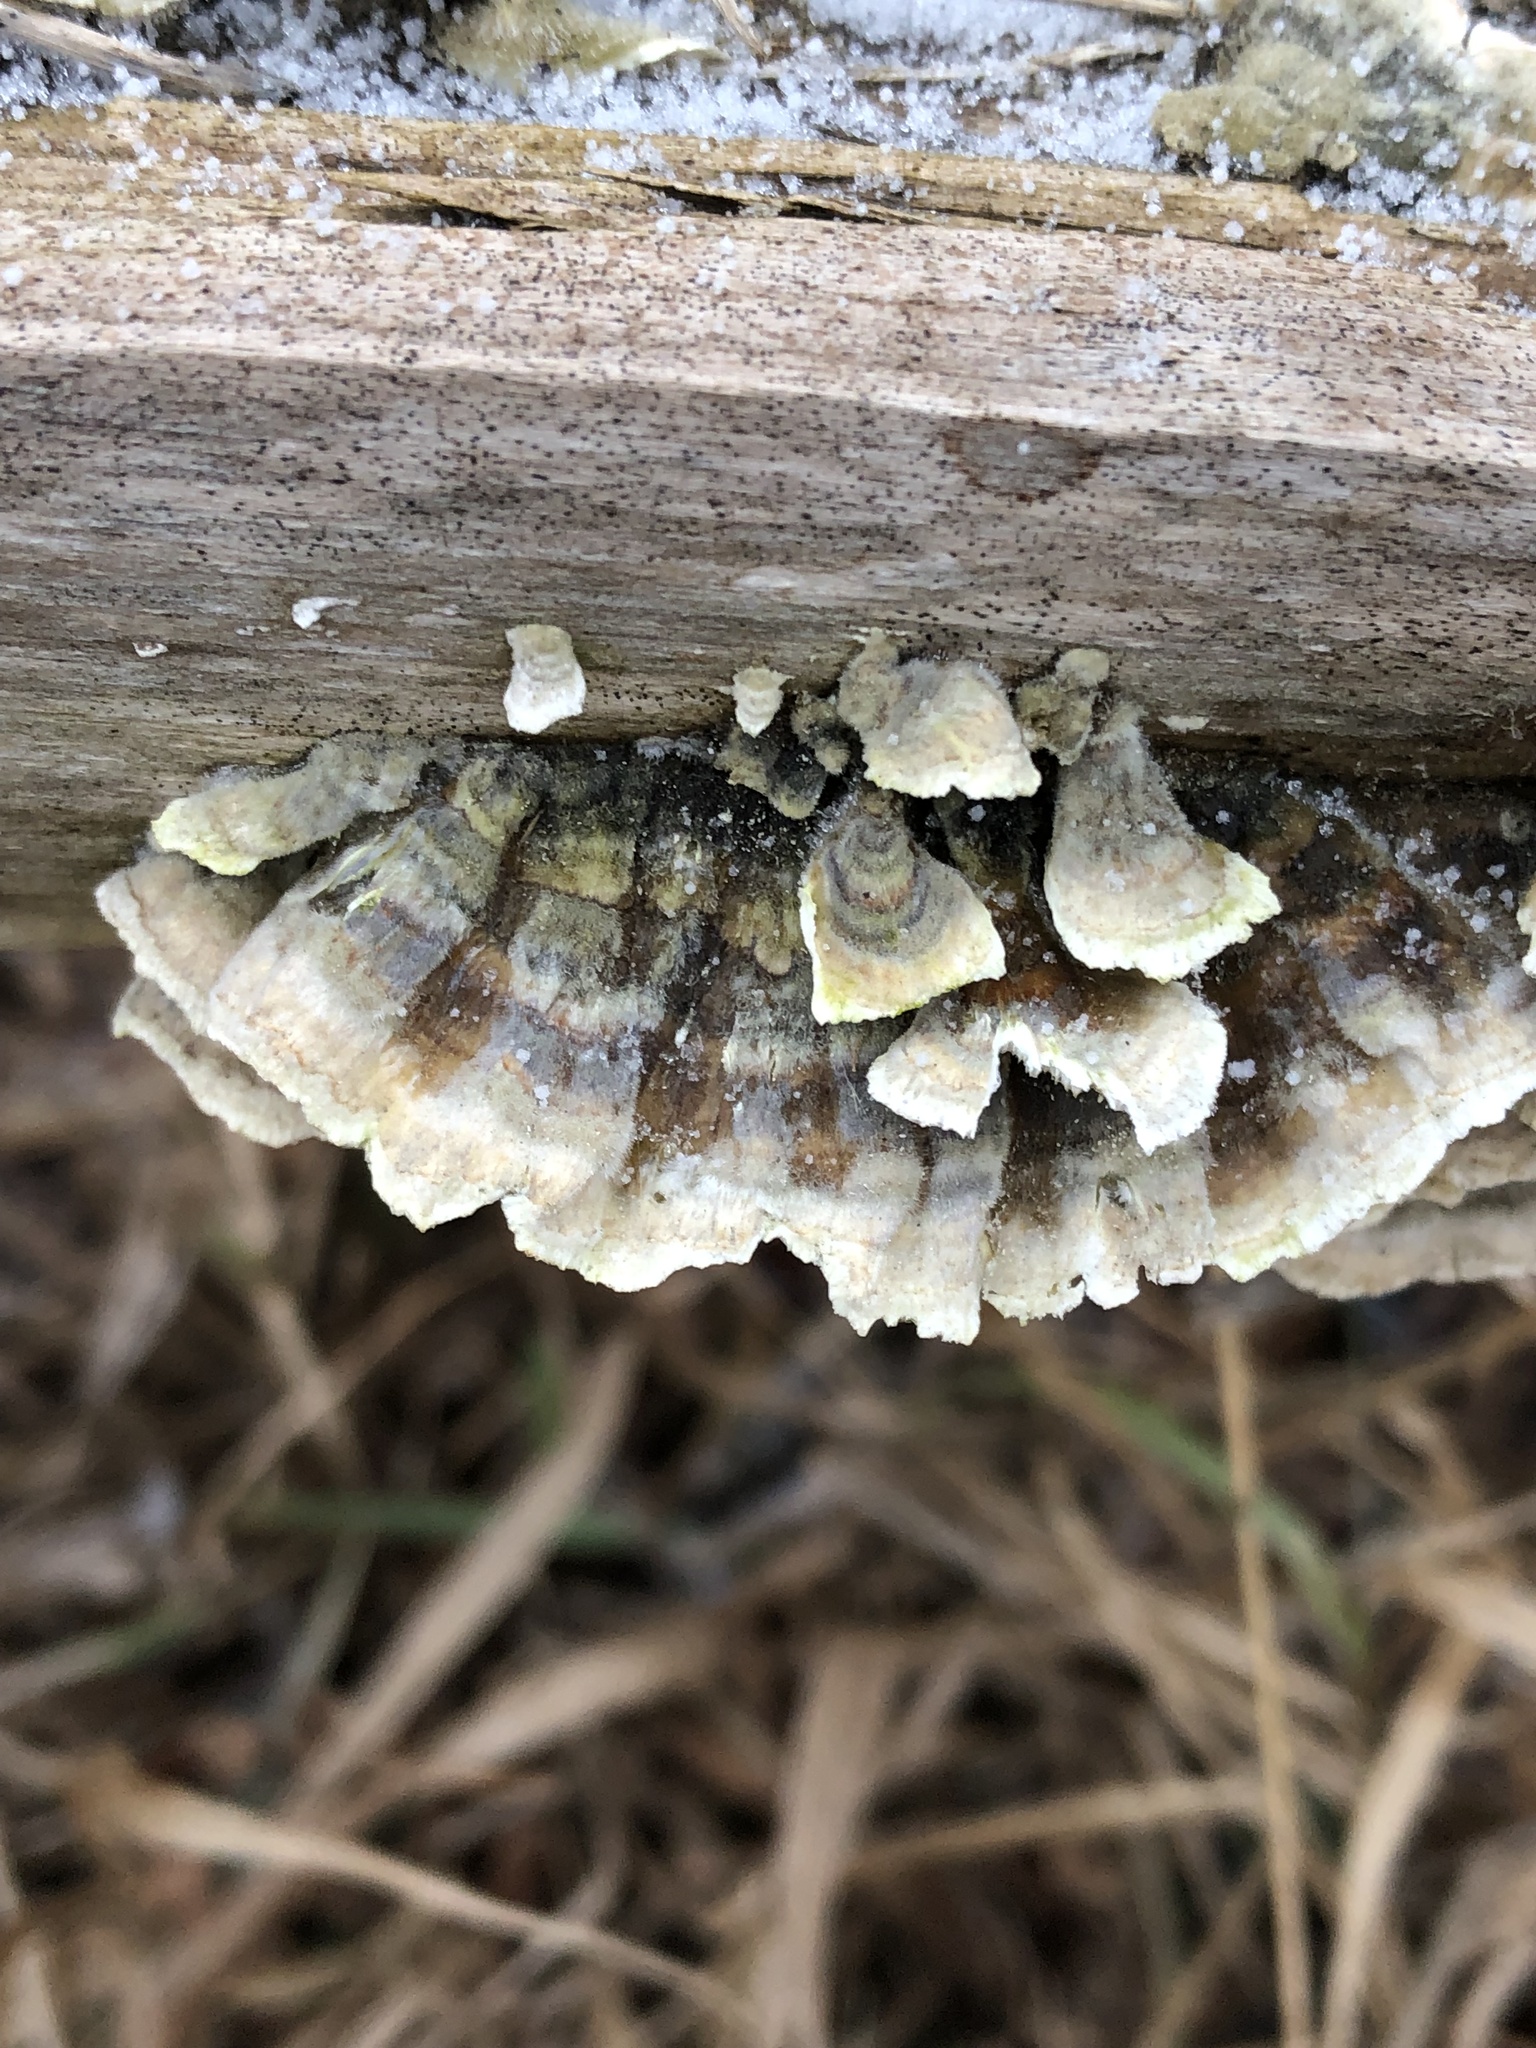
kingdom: Fungi
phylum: Basidiomycota
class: Agaricomycetes
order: Polyporales
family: Polyporaceae
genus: Trametes
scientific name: Trametes versicolor
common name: Turkeytail
